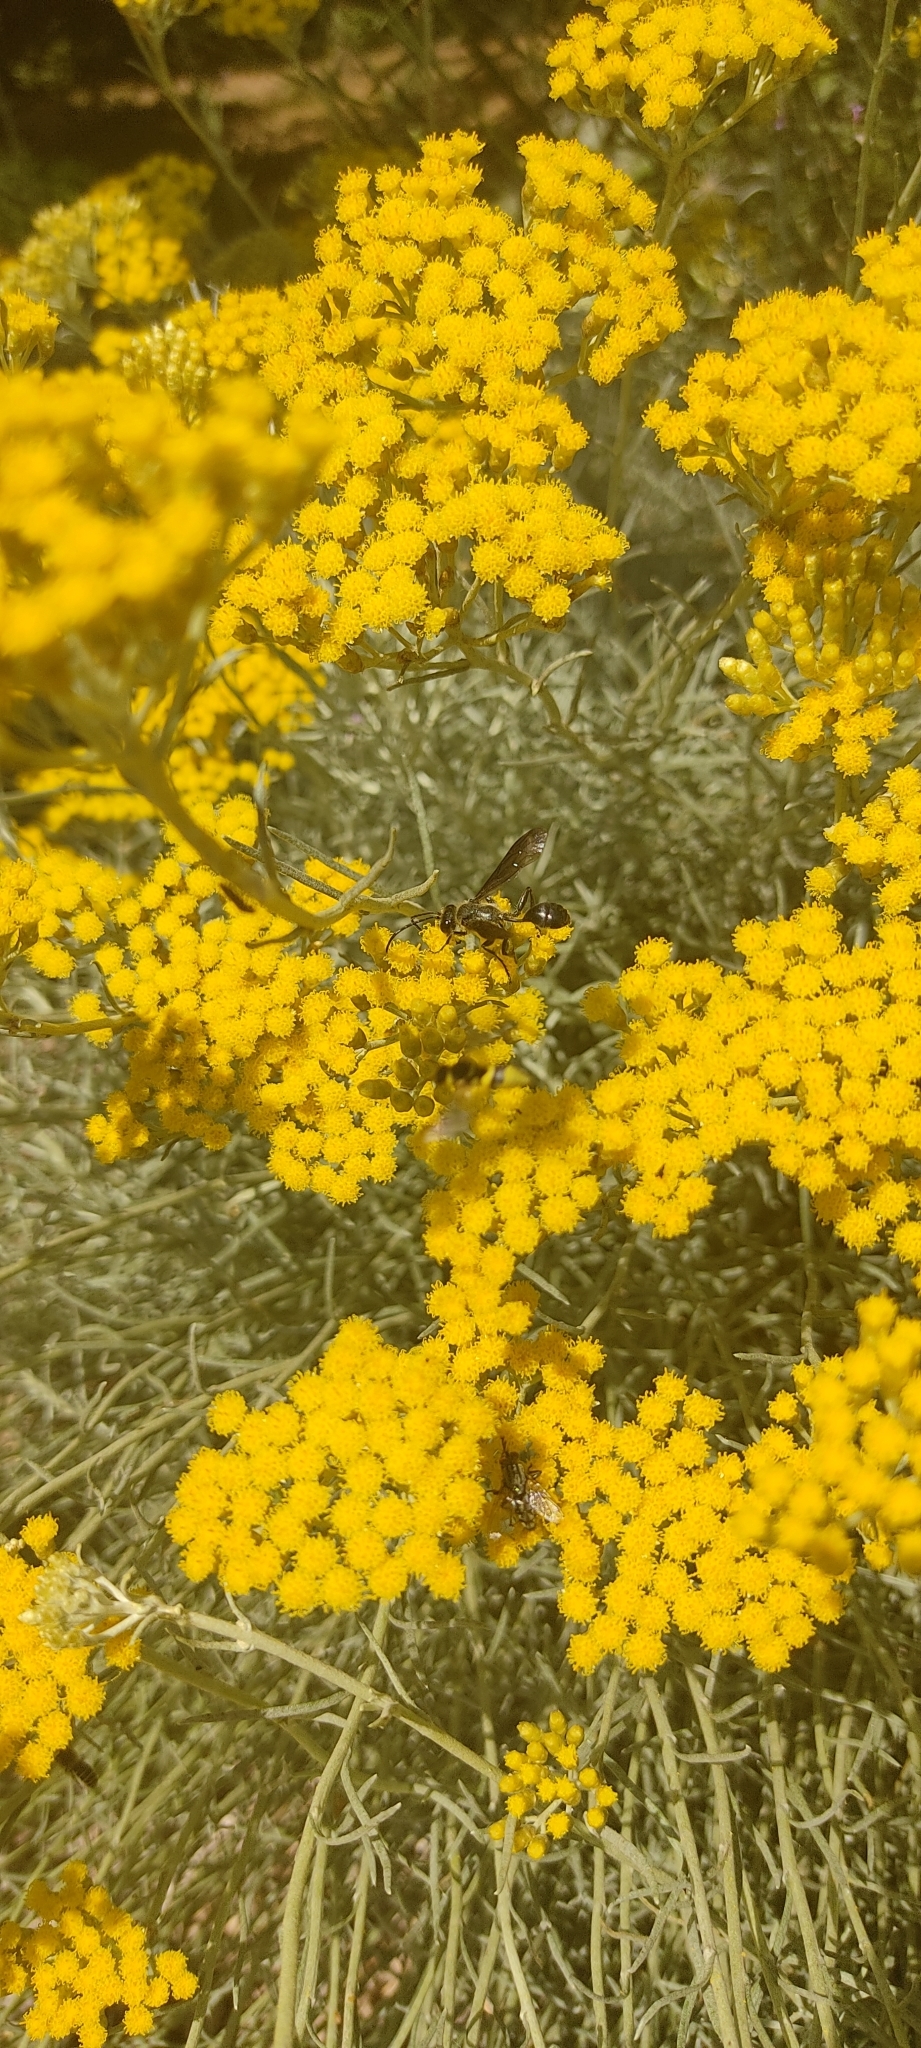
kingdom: Animalia
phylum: Arthropoda
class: Insecta
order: Hymenoptera
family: Sphecidae
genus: Isodontia
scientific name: Isodontia mexicana
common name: Mud dauber
